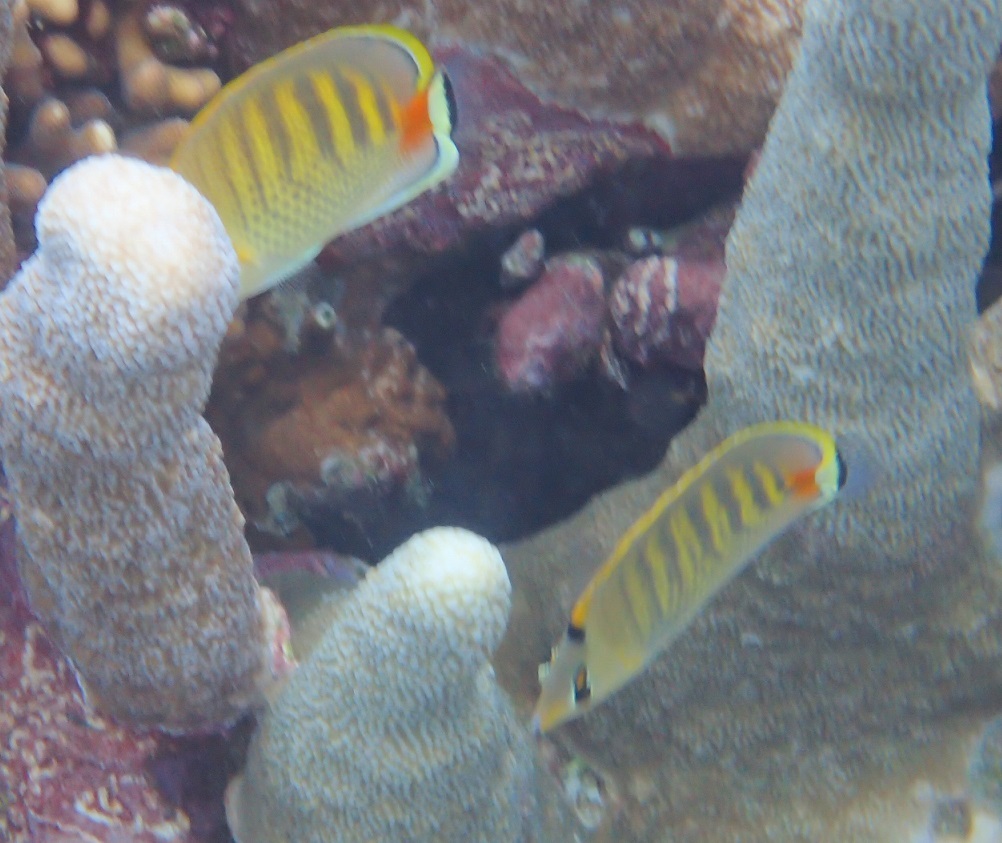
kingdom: Animalia
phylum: Chordata
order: Perciformes
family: Chaetodontidae
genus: Chaetodon
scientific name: Chaetodon punctatofasciatus
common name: Spot-banded butterflyfish
